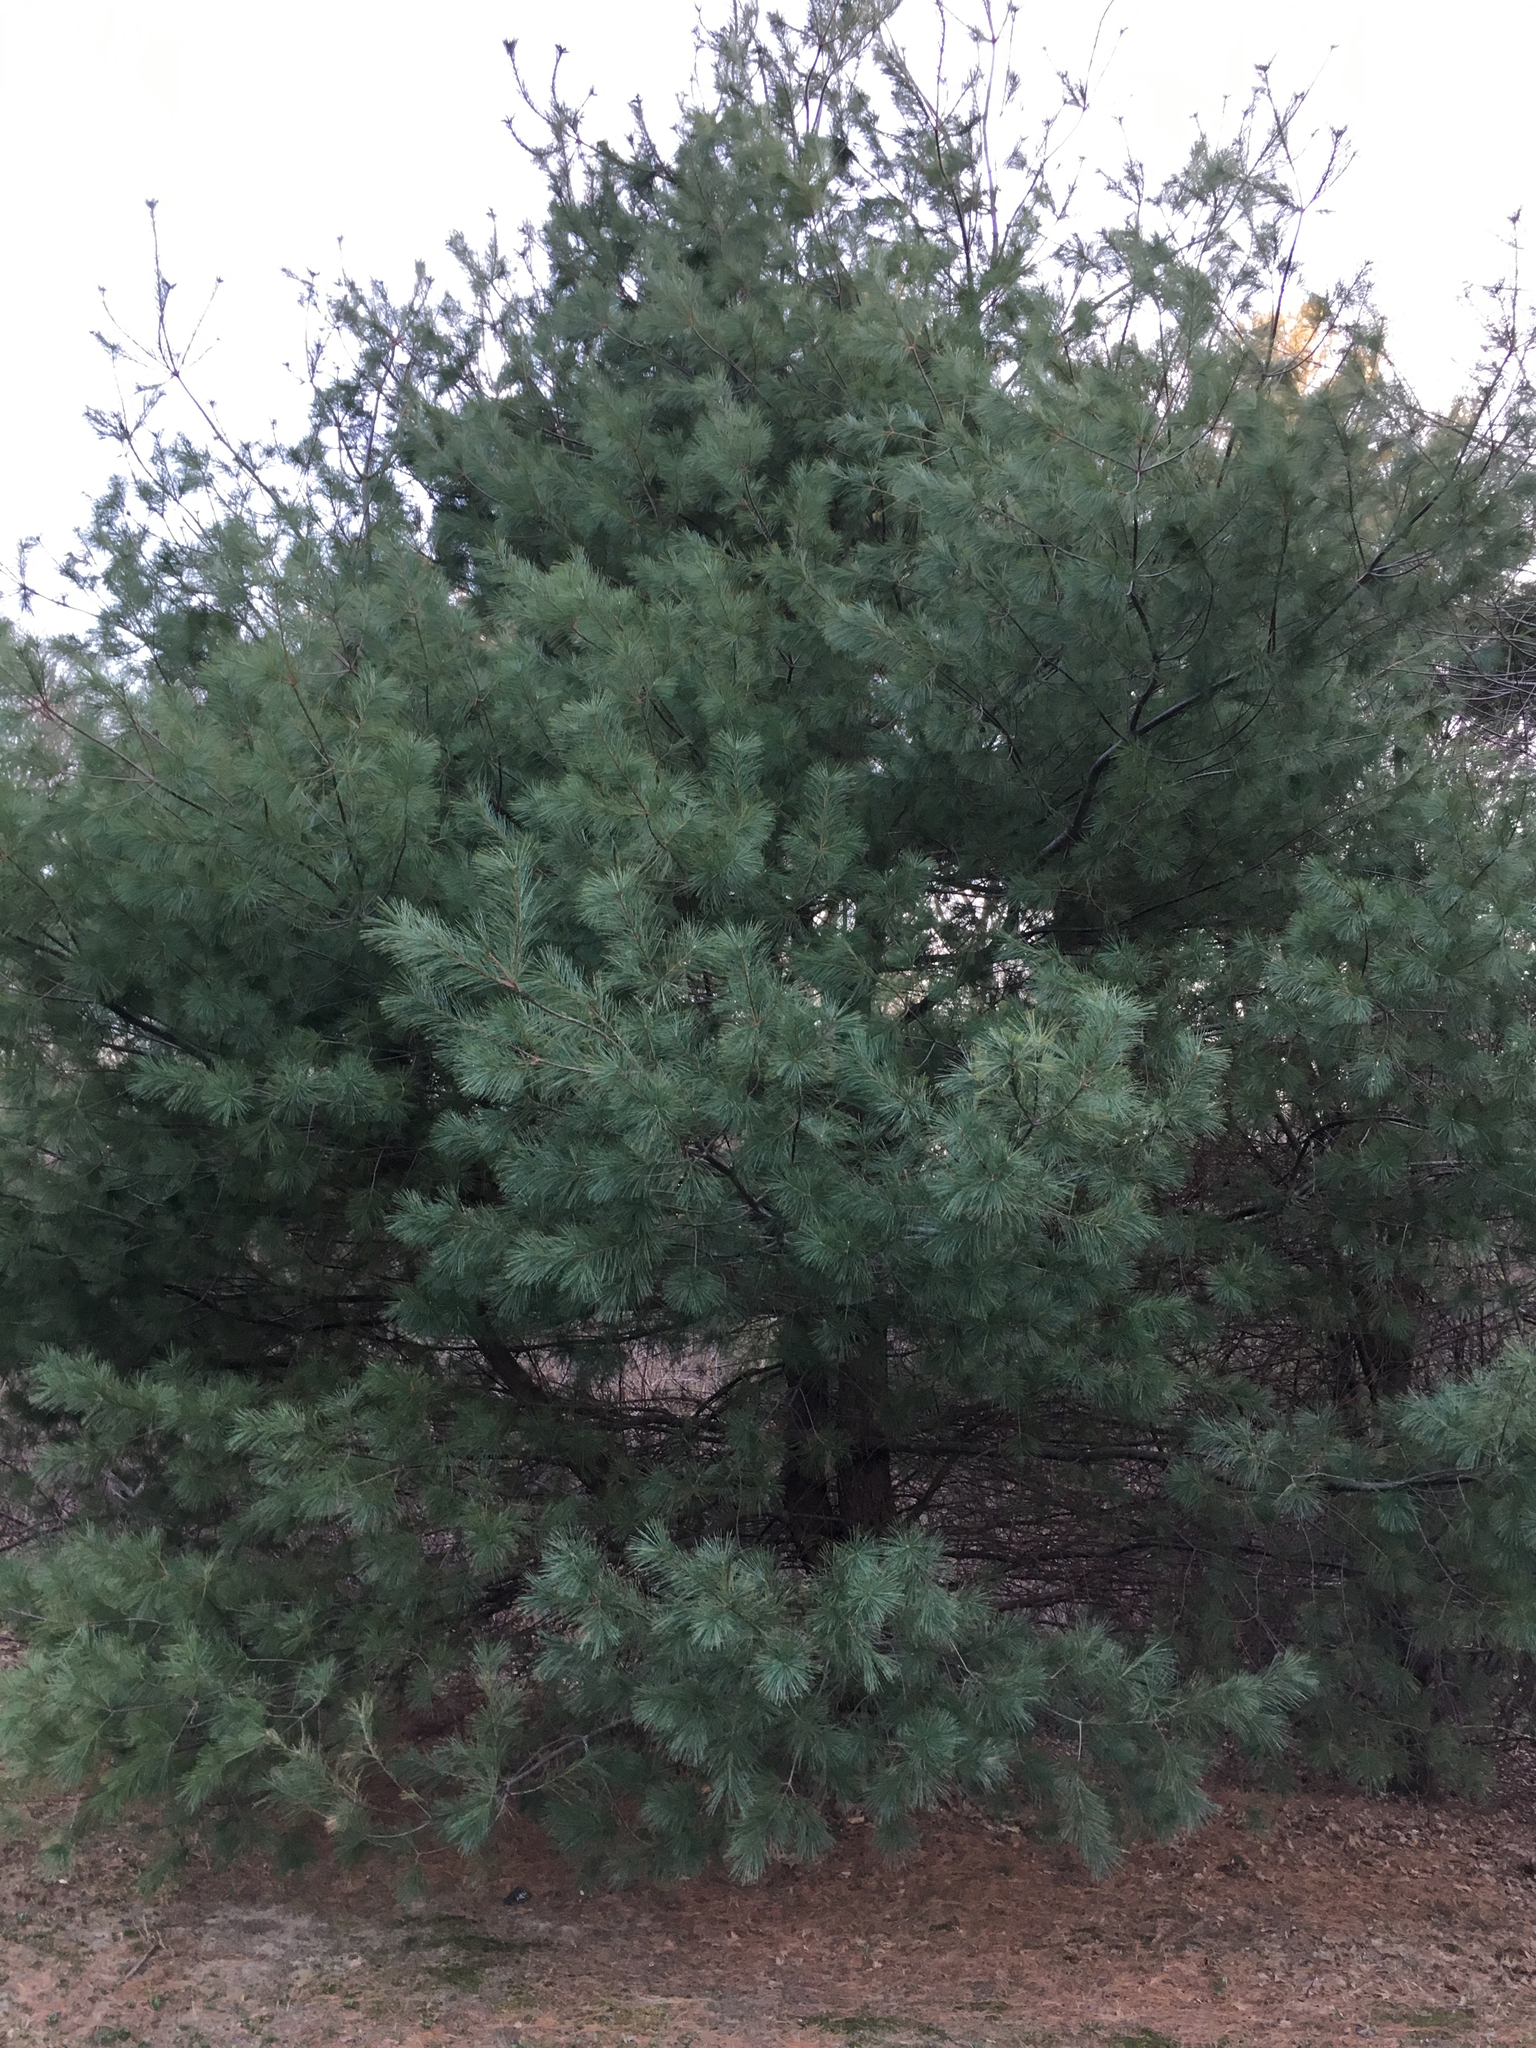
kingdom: Plantae
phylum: Tracheophyta
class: Pinopsida
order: Pinales
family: Pinaceae
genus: Pinus
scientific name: Pinus strobus
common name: Weymouth pine
